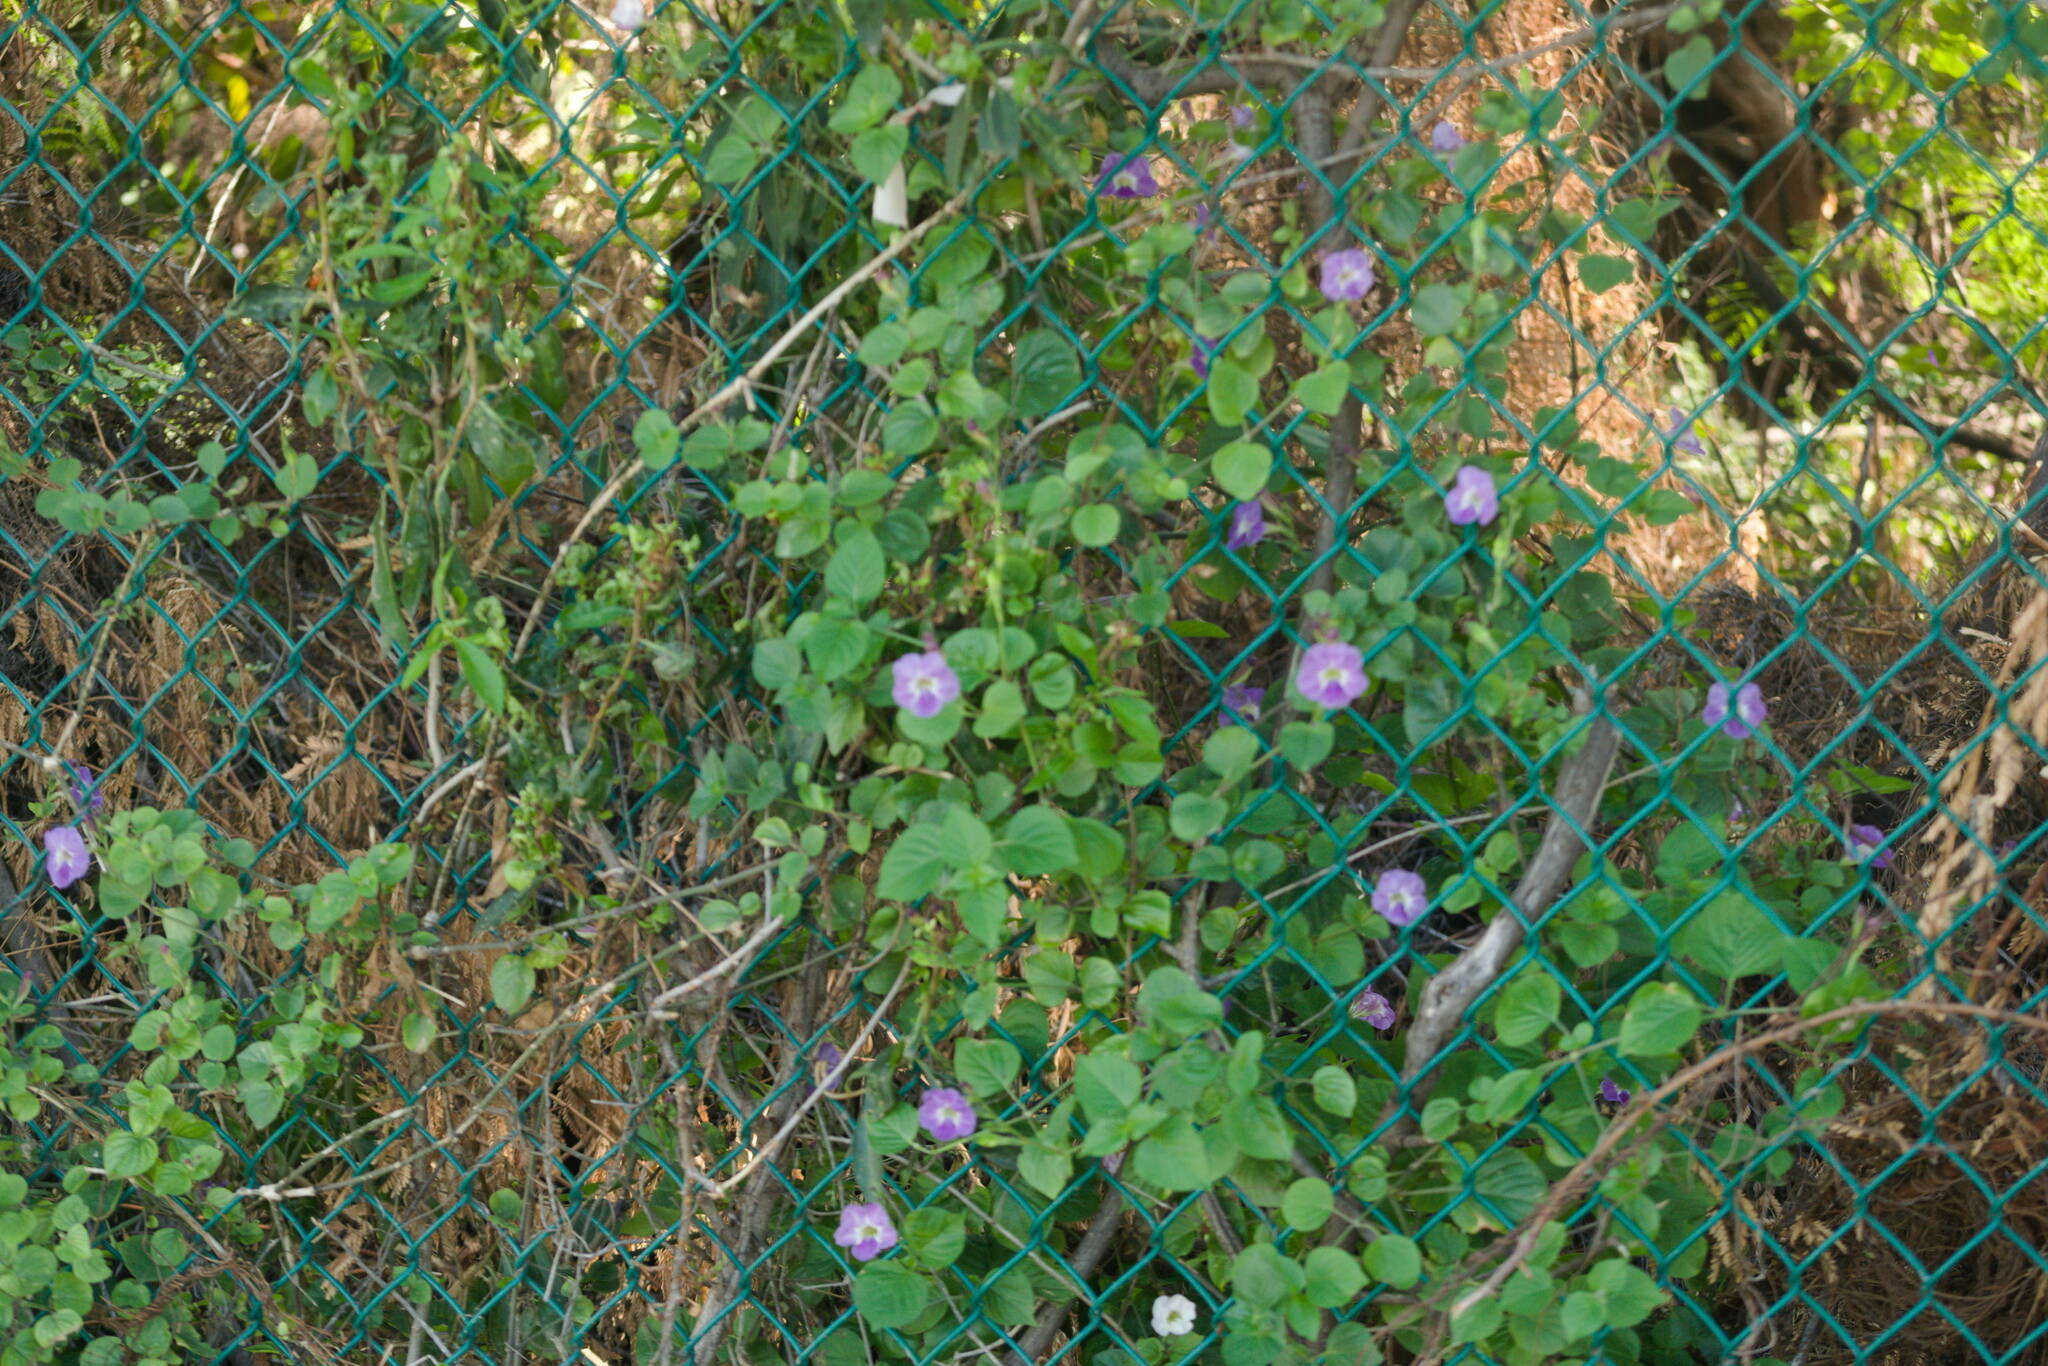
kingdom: Plantae
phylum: Tracheophyta
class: Magnoliopsida
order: Lamiales
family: Acanthaceae
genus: Asystasia
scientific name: Asystasia gangetica
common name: Chinese violet
